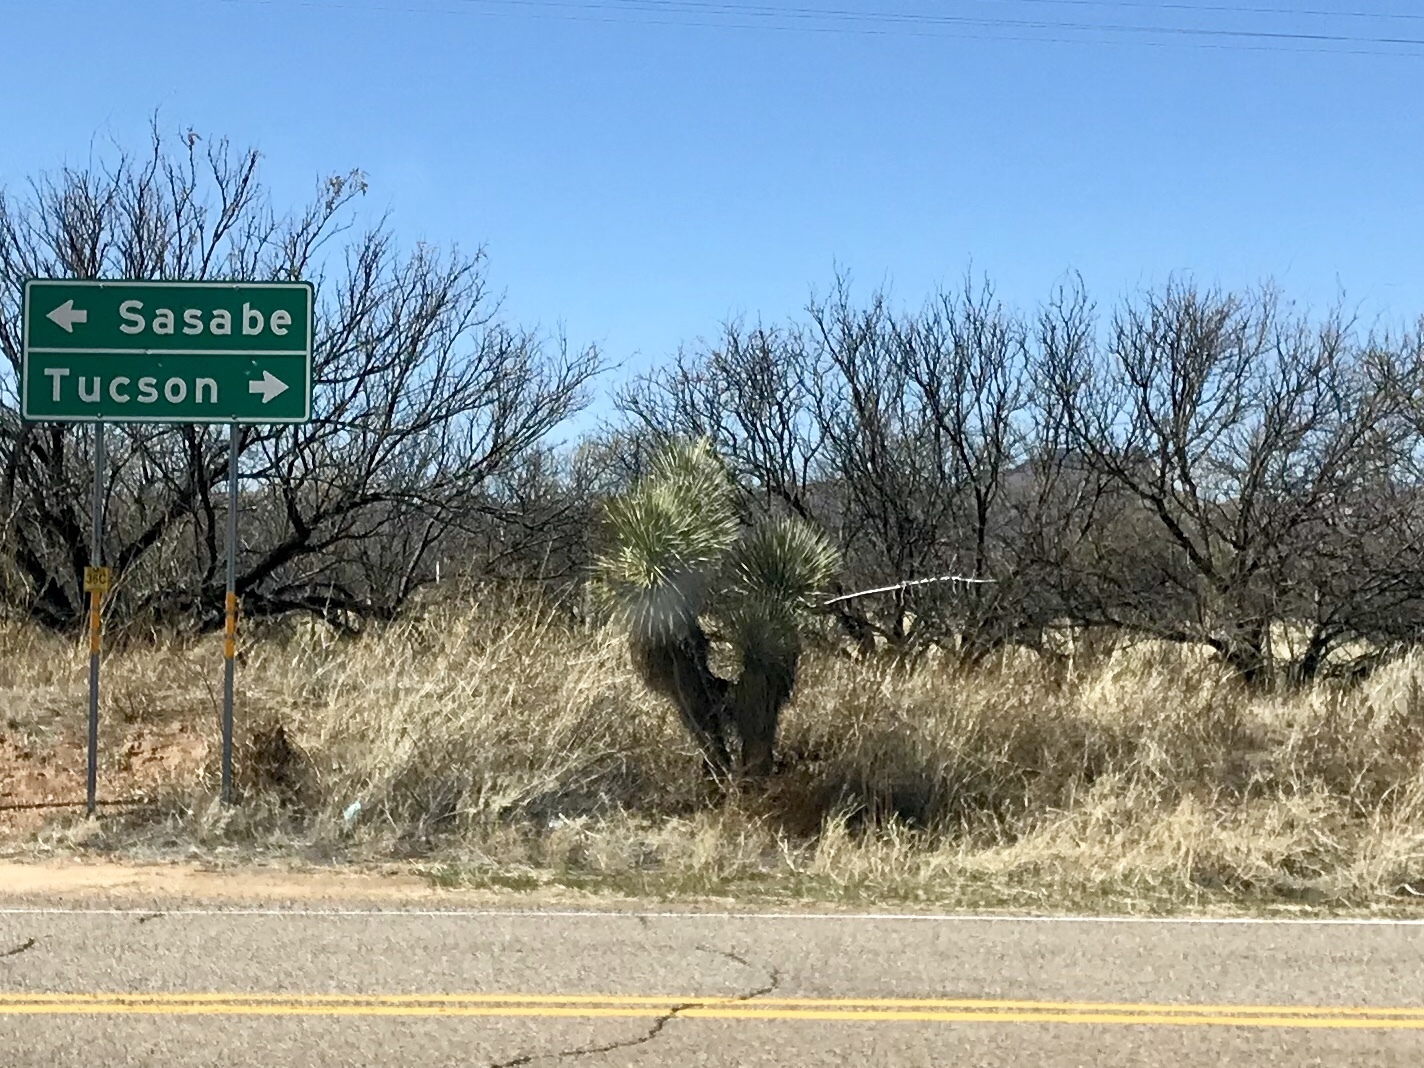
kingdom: Plantae
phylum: Tracheophyta
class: Liliopsida
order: Asparagales
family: Asparagaceae
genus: Yucca
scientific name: Yucca elata
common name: Palmella
